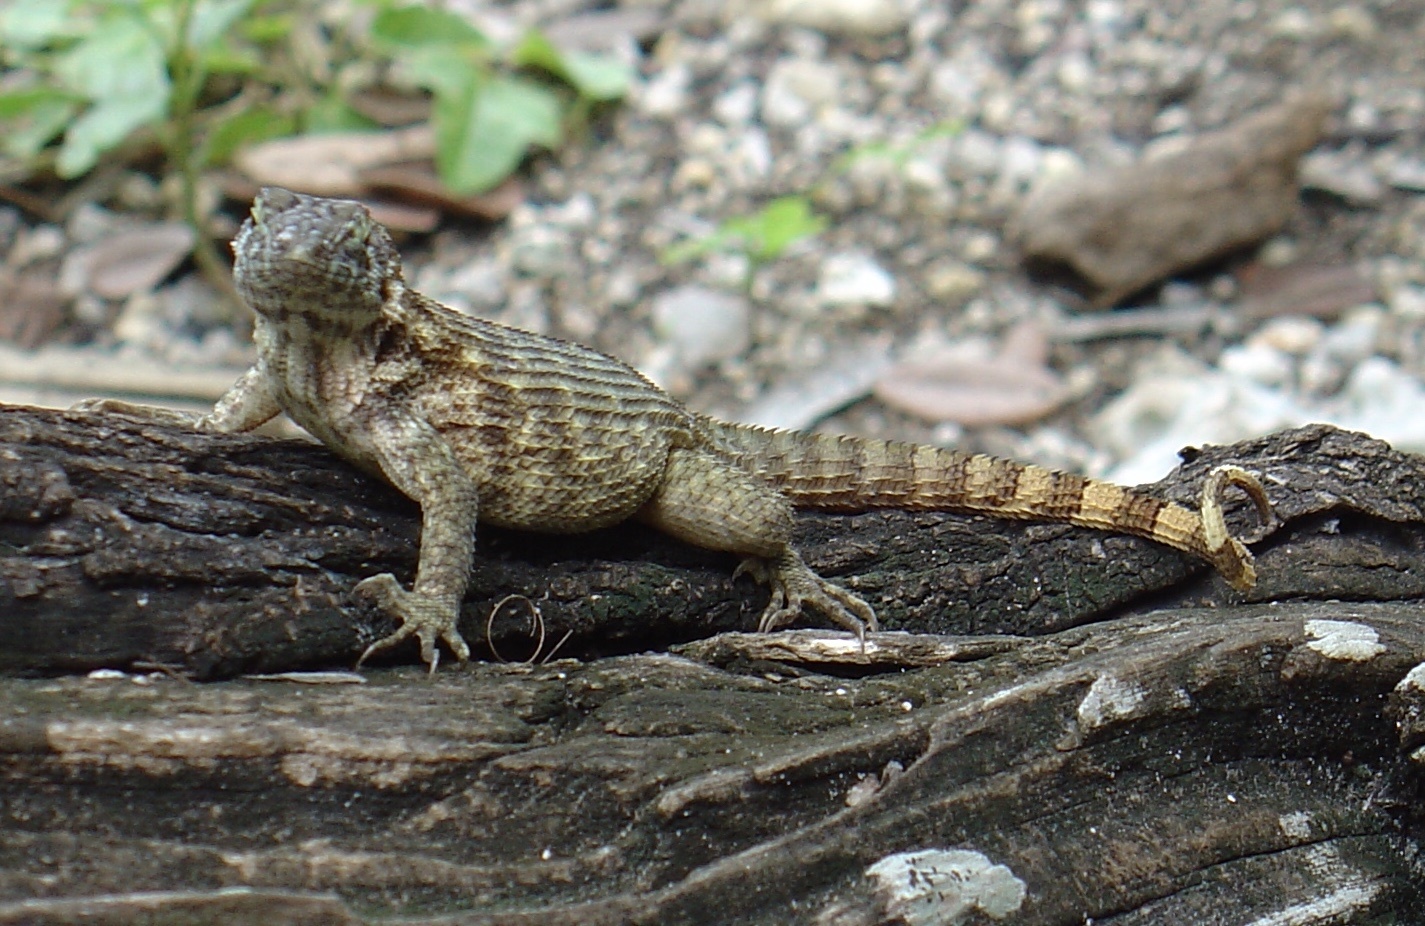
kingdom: Animalia
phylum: Chordata
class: Squamata
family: Leiocephalidae
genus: Leiocephalus
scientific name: Leiocephalus carinatus
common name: Northern curly-tailed lizard
